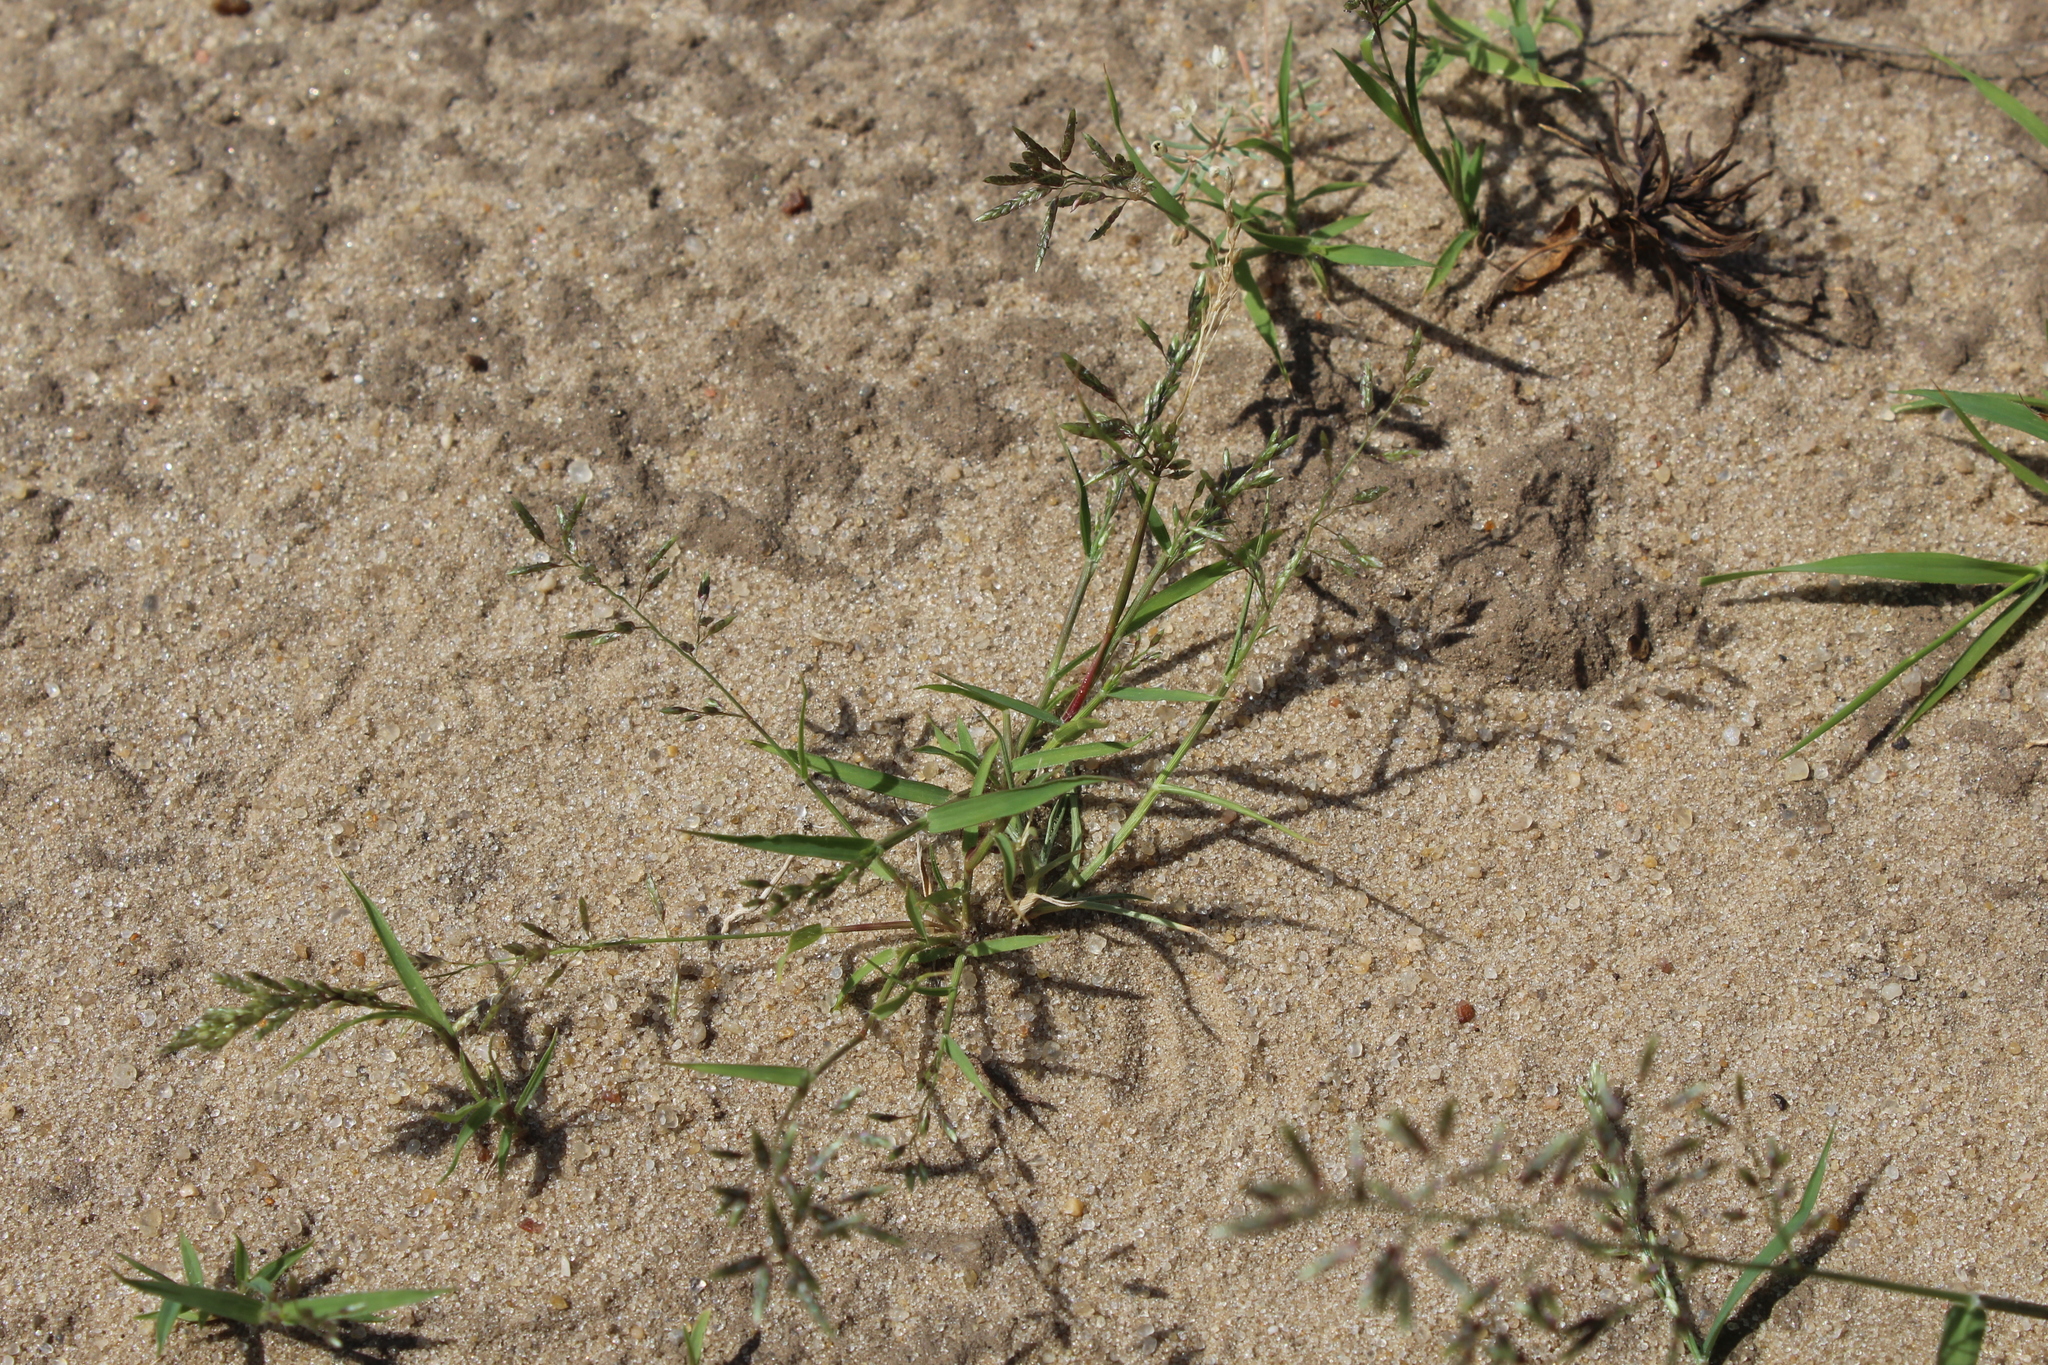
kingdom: Plantae
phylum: Tracheophyta
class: Liliopsida
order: Poales
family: Poaceae
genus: Eragrostis
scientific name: Eragrostis minor
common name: Small love-grass
